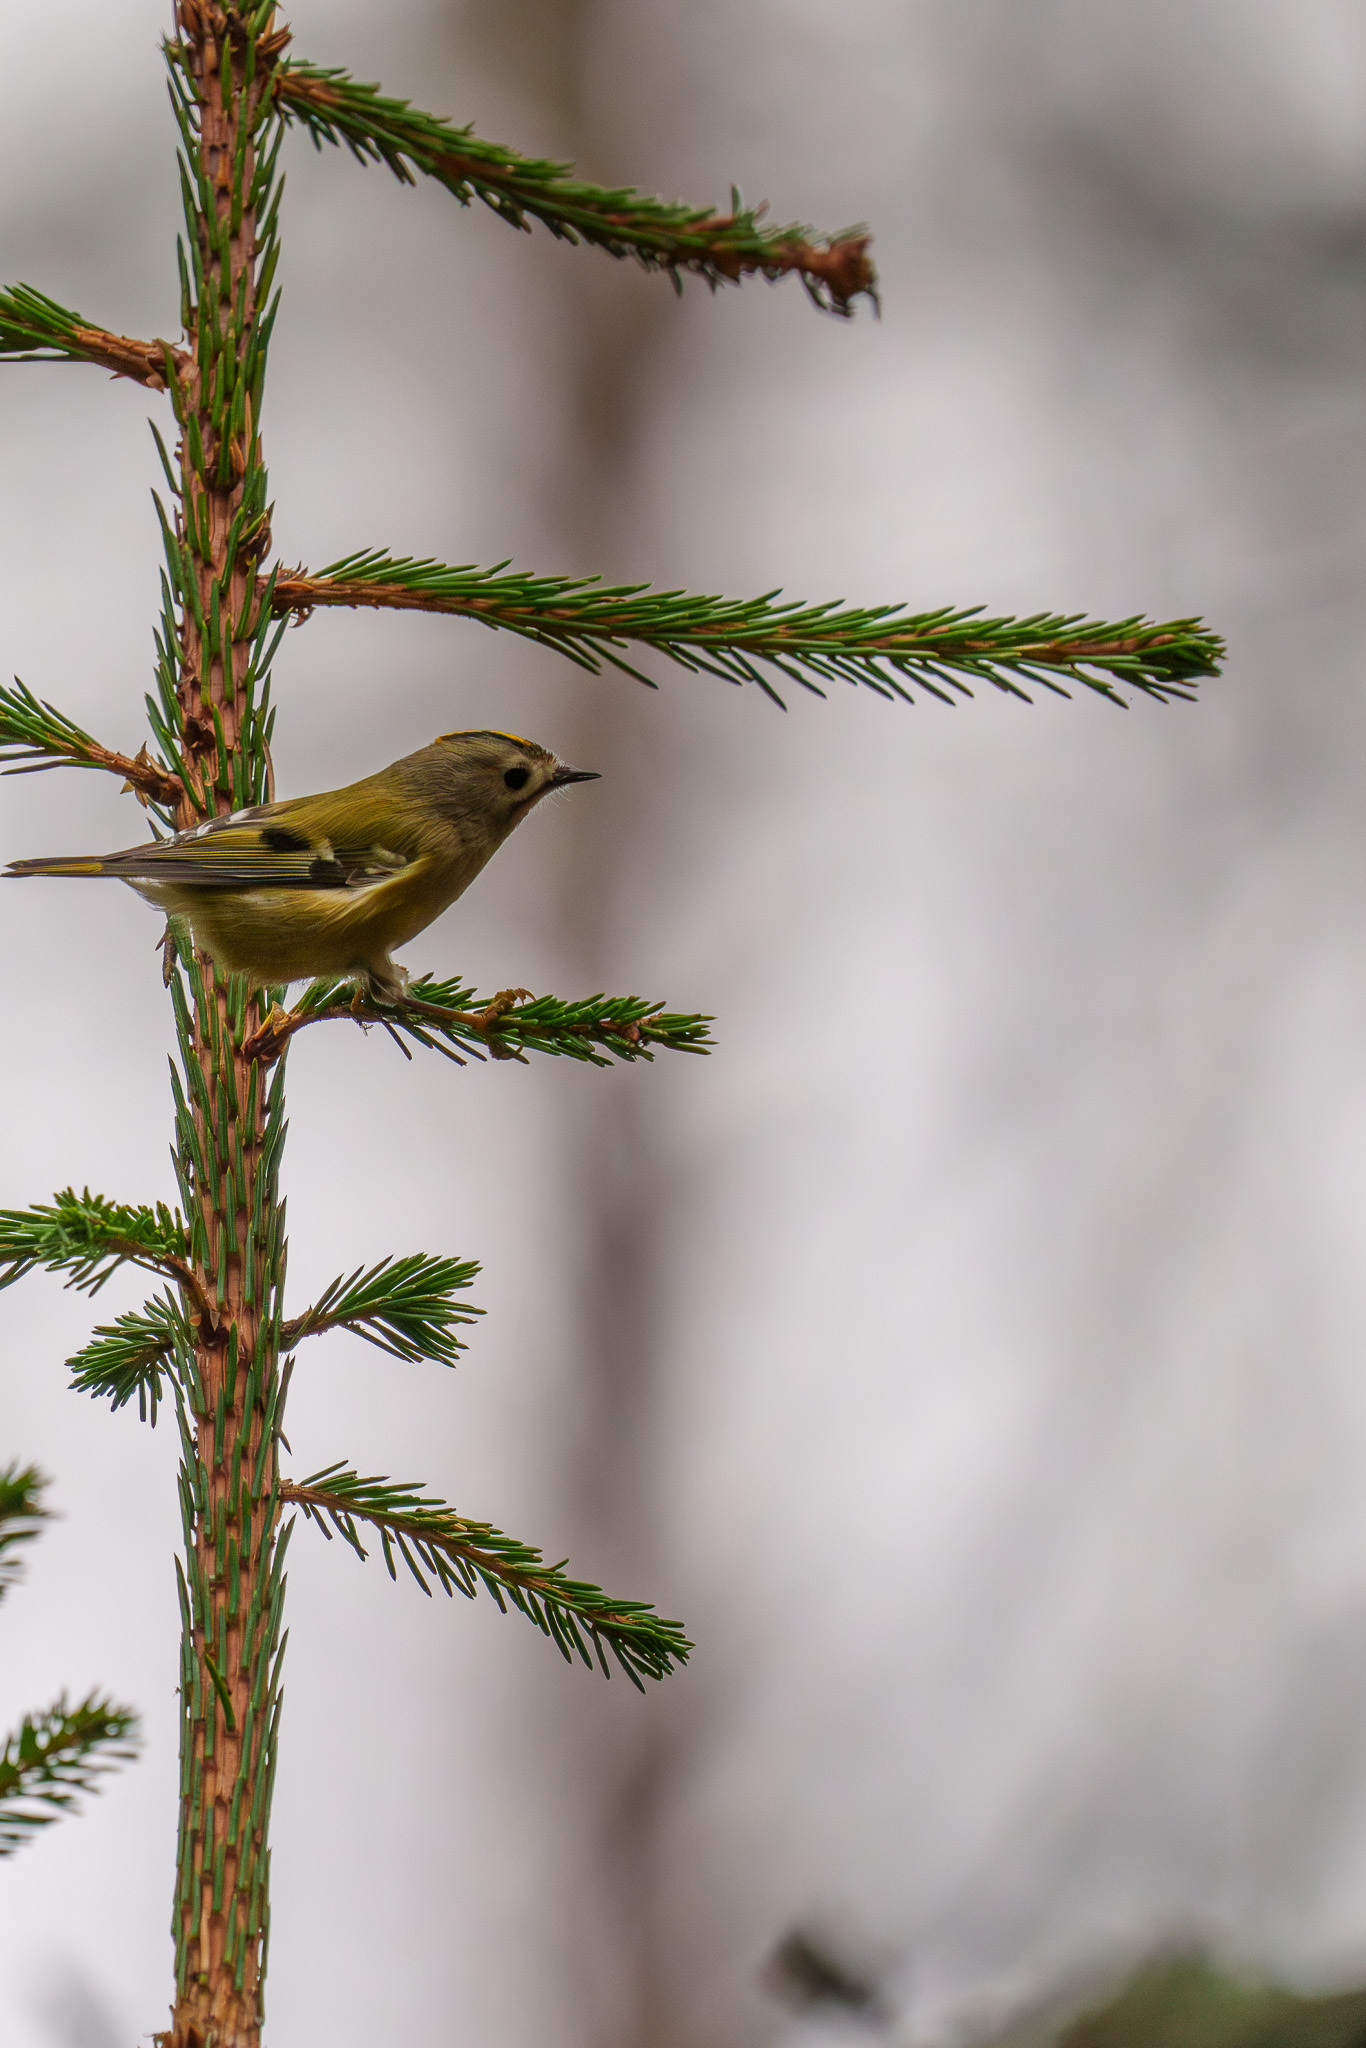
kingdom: Animalia
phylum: Chordata
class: Aves
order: Passeriformes
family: Regulidae
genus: Regulus
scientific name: Regulus regulus
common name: Goldcrest
